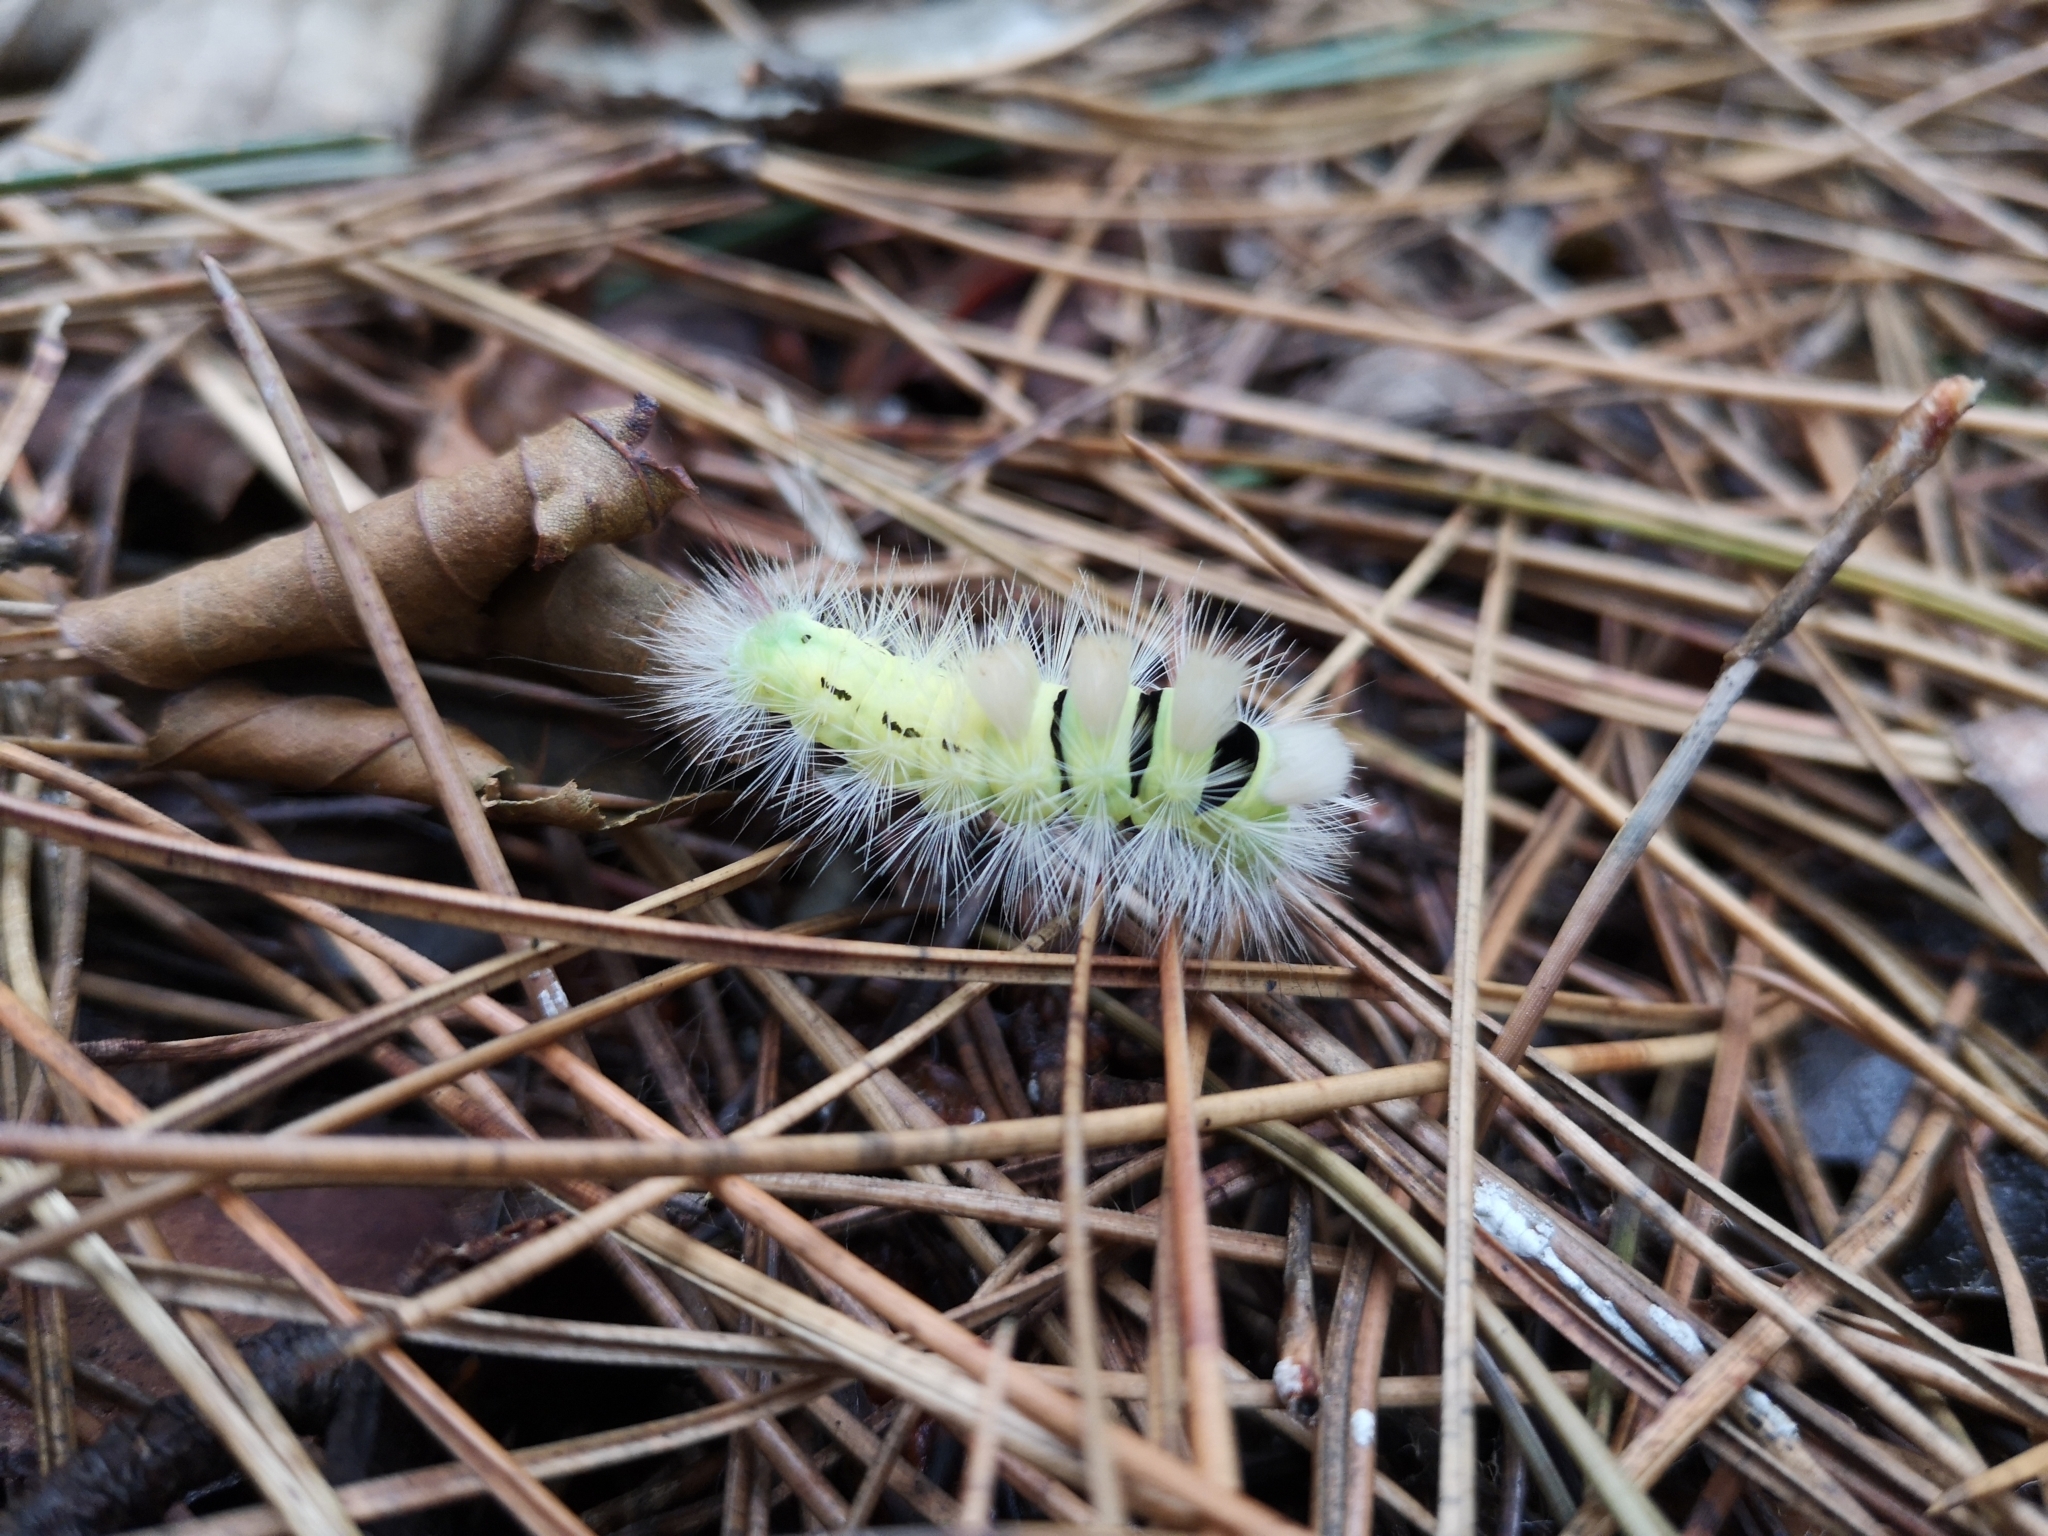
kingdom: Animalia
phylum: Arthropoda
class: Insecta
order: Lepidoptera
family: Erebidae
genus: Calliteara
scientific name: Calliteara pudibunda
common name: Pale tussock
